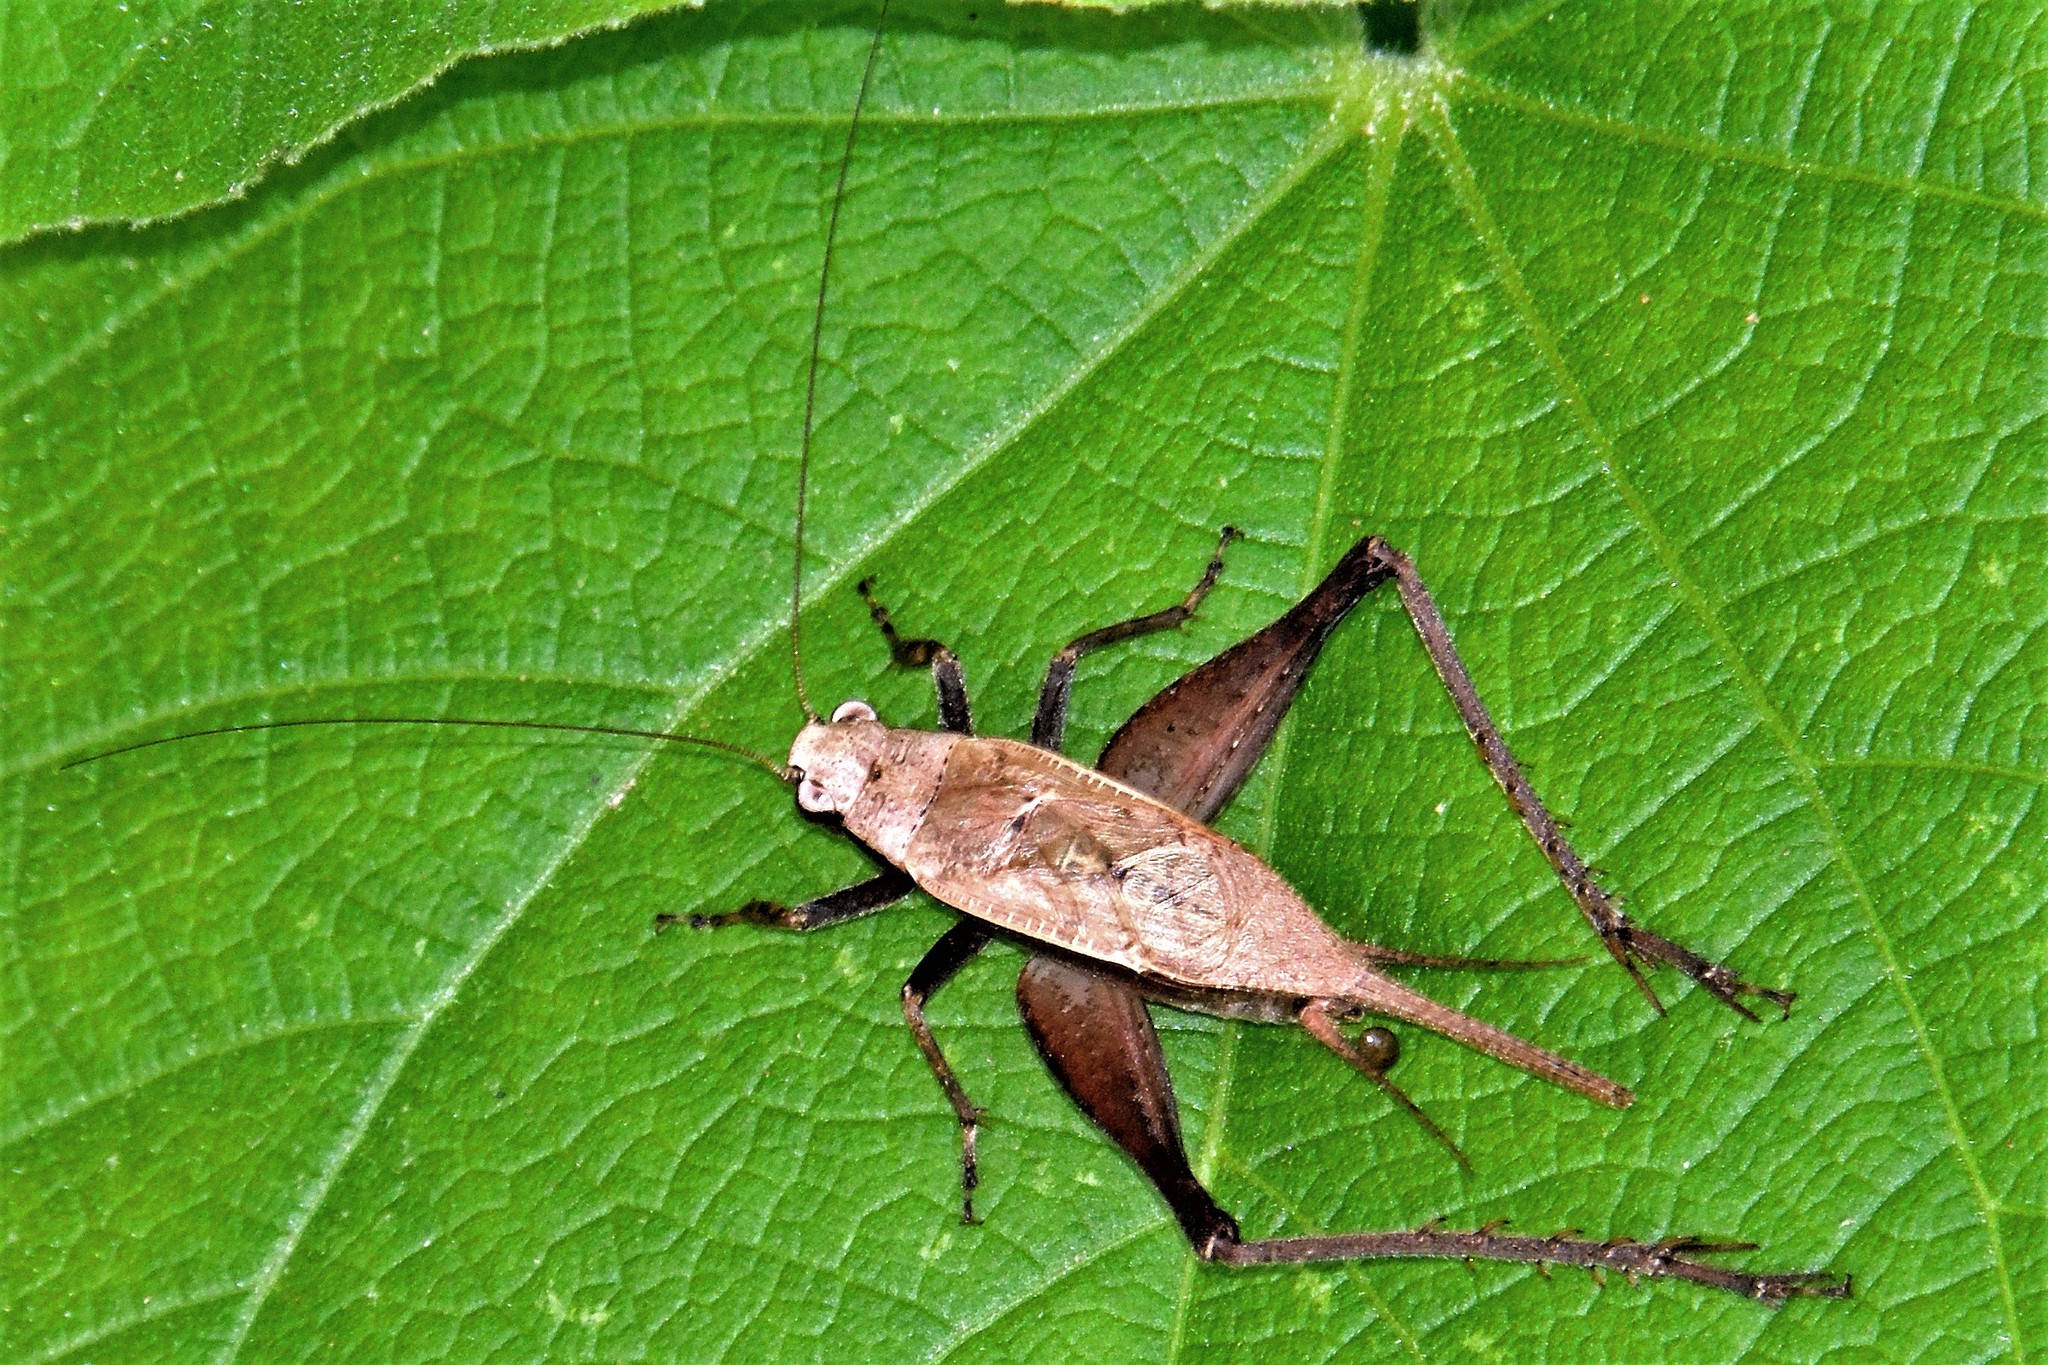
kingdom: Animalia
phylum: Arthropoda
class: Insecta
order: Orthoptera
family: Gryllidae
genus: Eneoptera
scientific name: Eneoptera surinamensis
